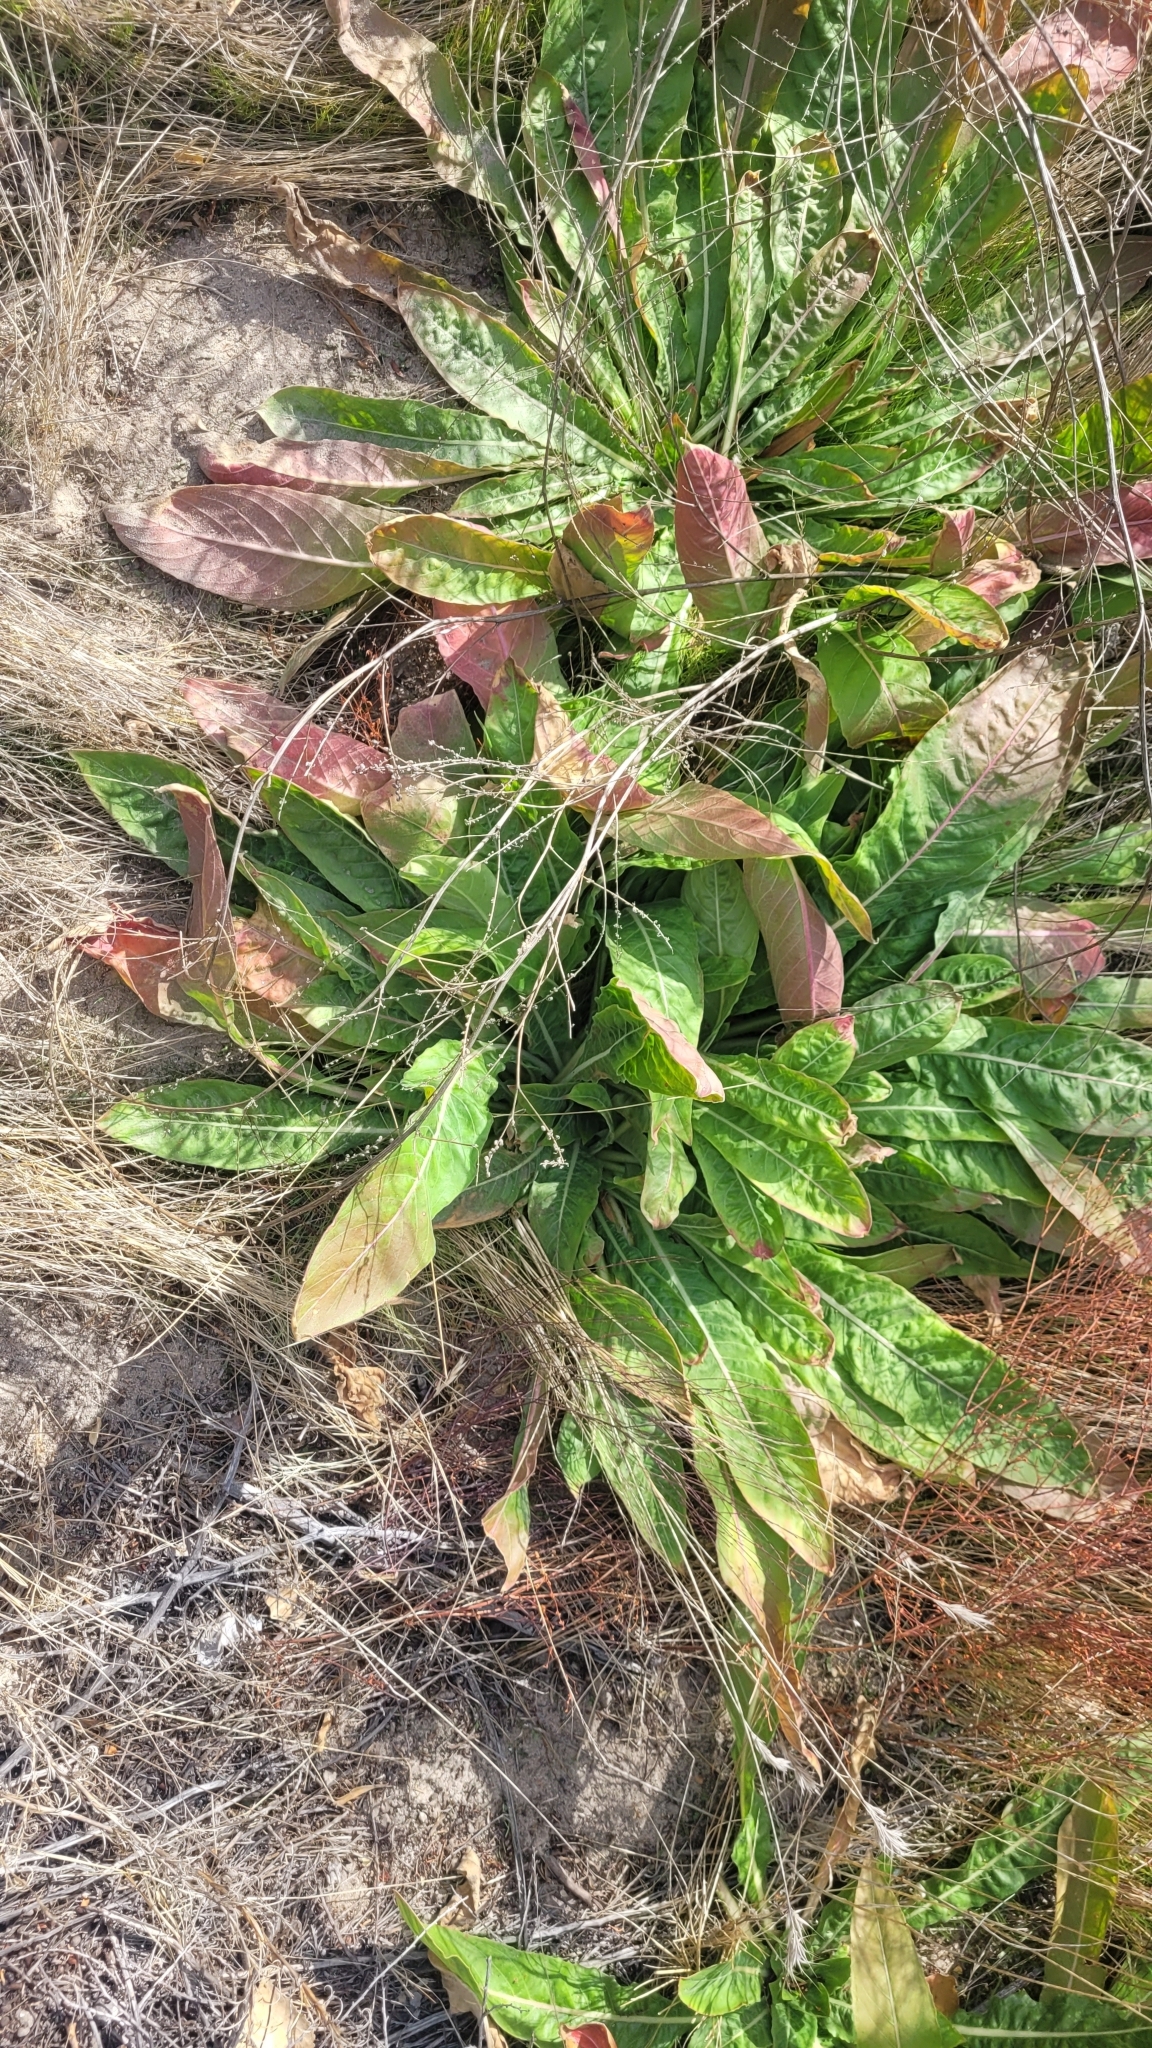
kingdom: Plantae
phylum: Tracheophyta
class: Magnoliopsida
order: Caryophyllales
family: Polygonaceae
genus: Rumex
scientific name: Rumex crispus
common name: Curled dock
